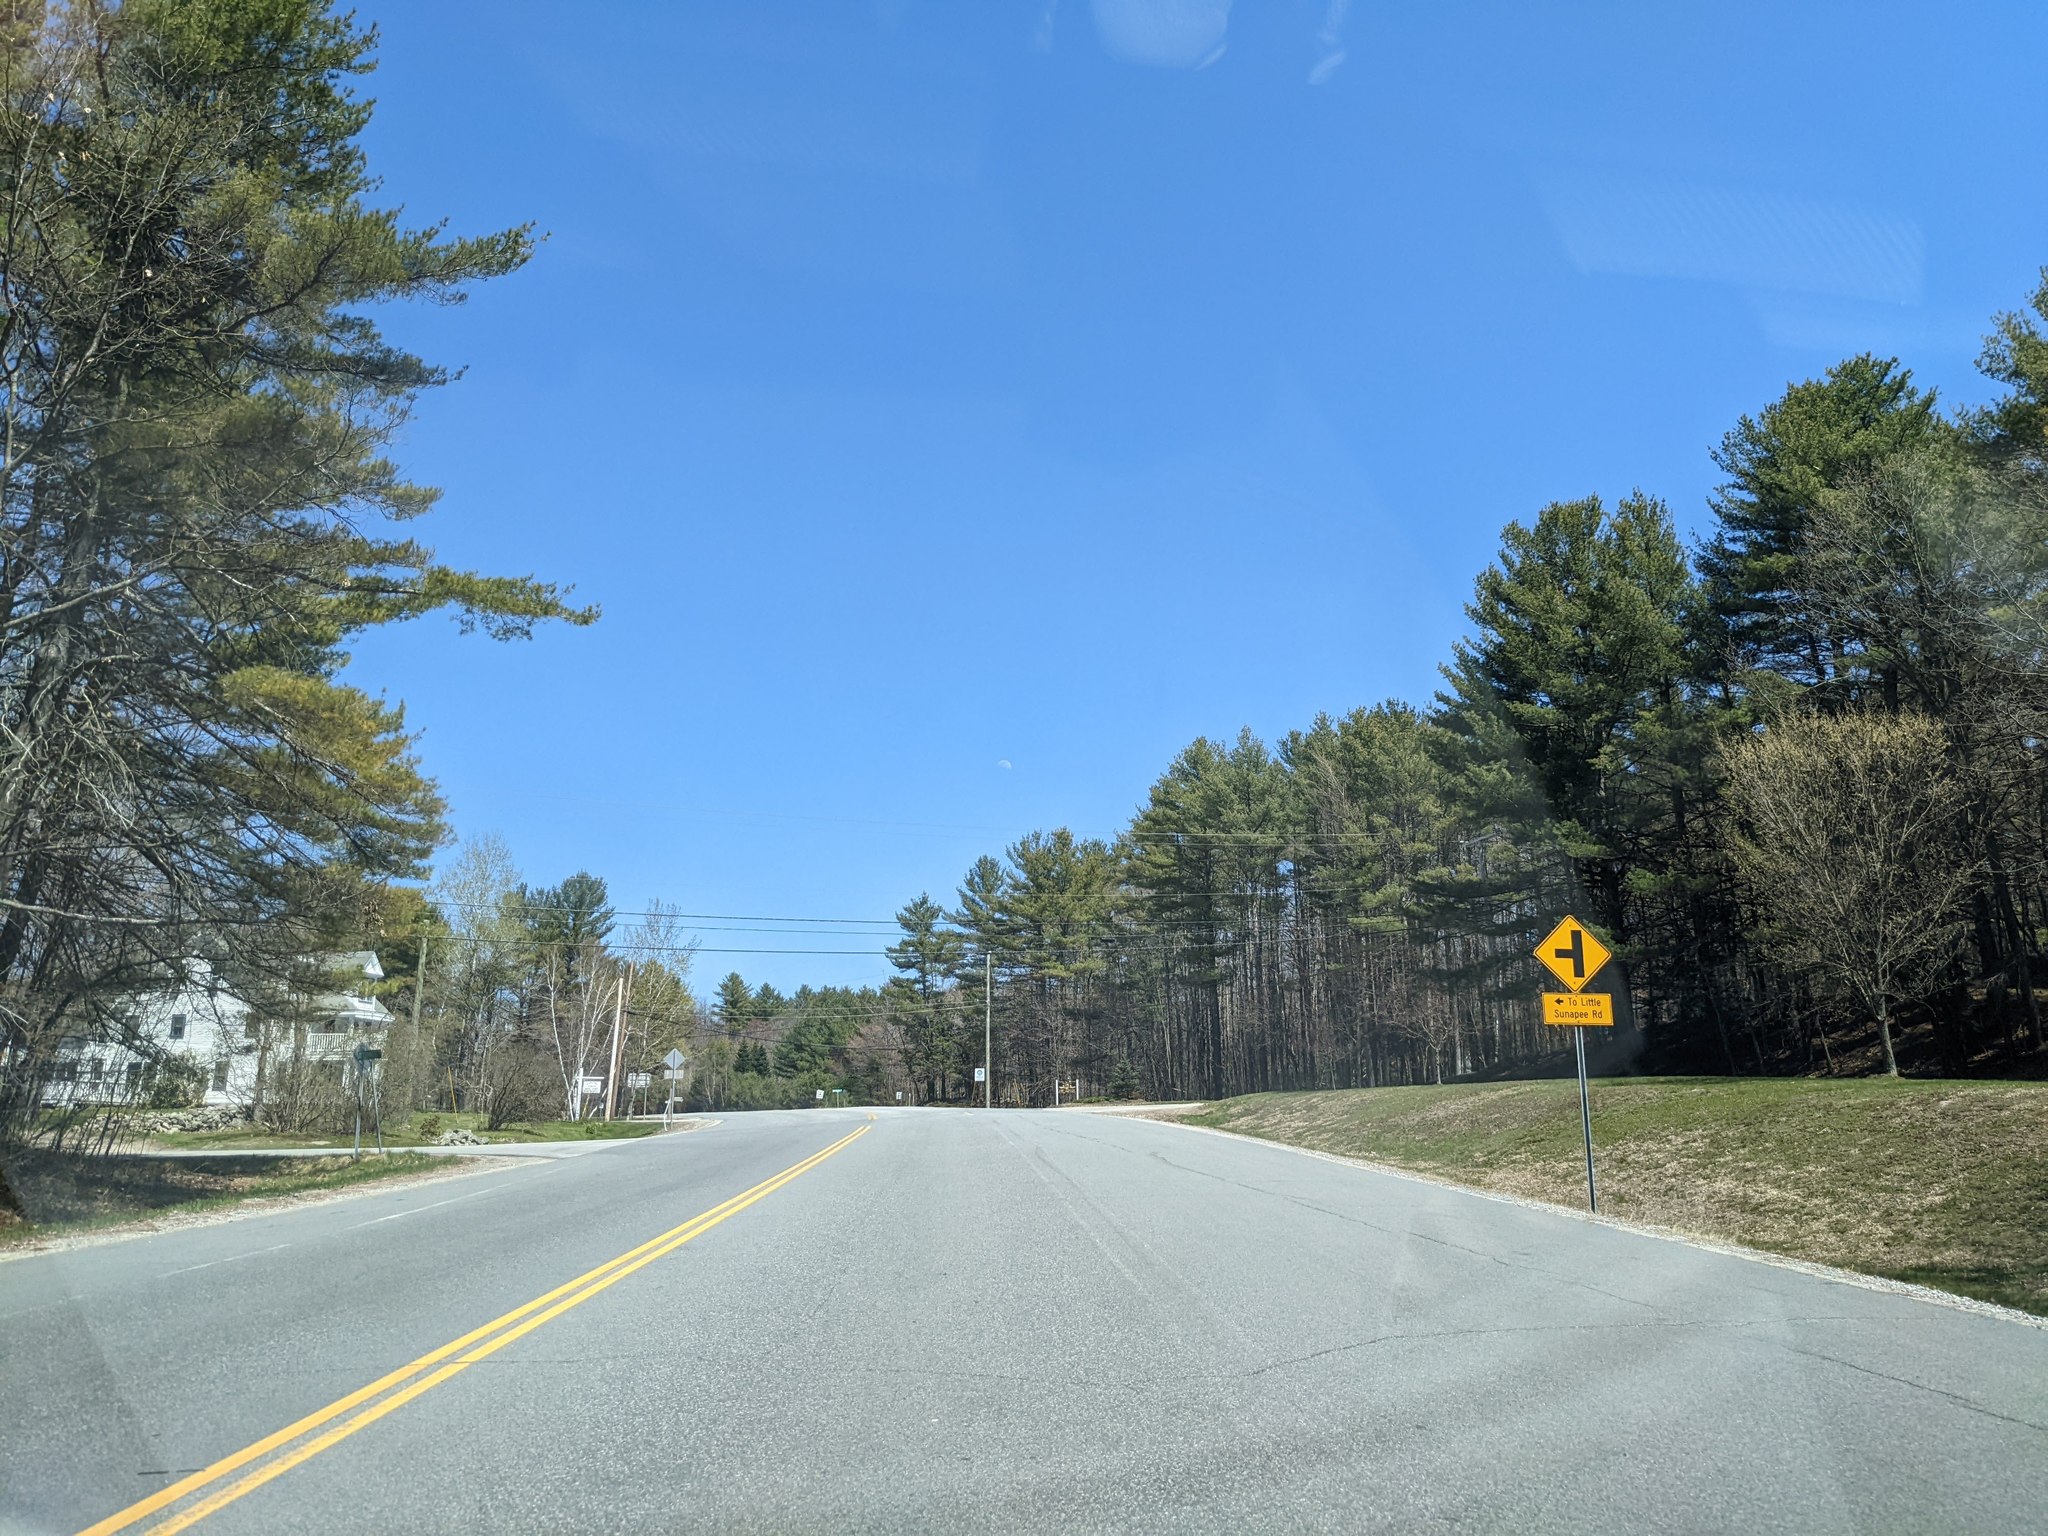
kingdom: Plantae
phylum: Tracheophyta
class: Pinopsida
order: Pinales
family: Pinaceae
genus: Pinus
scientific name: Pinus strobus
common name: Weymouth pine
